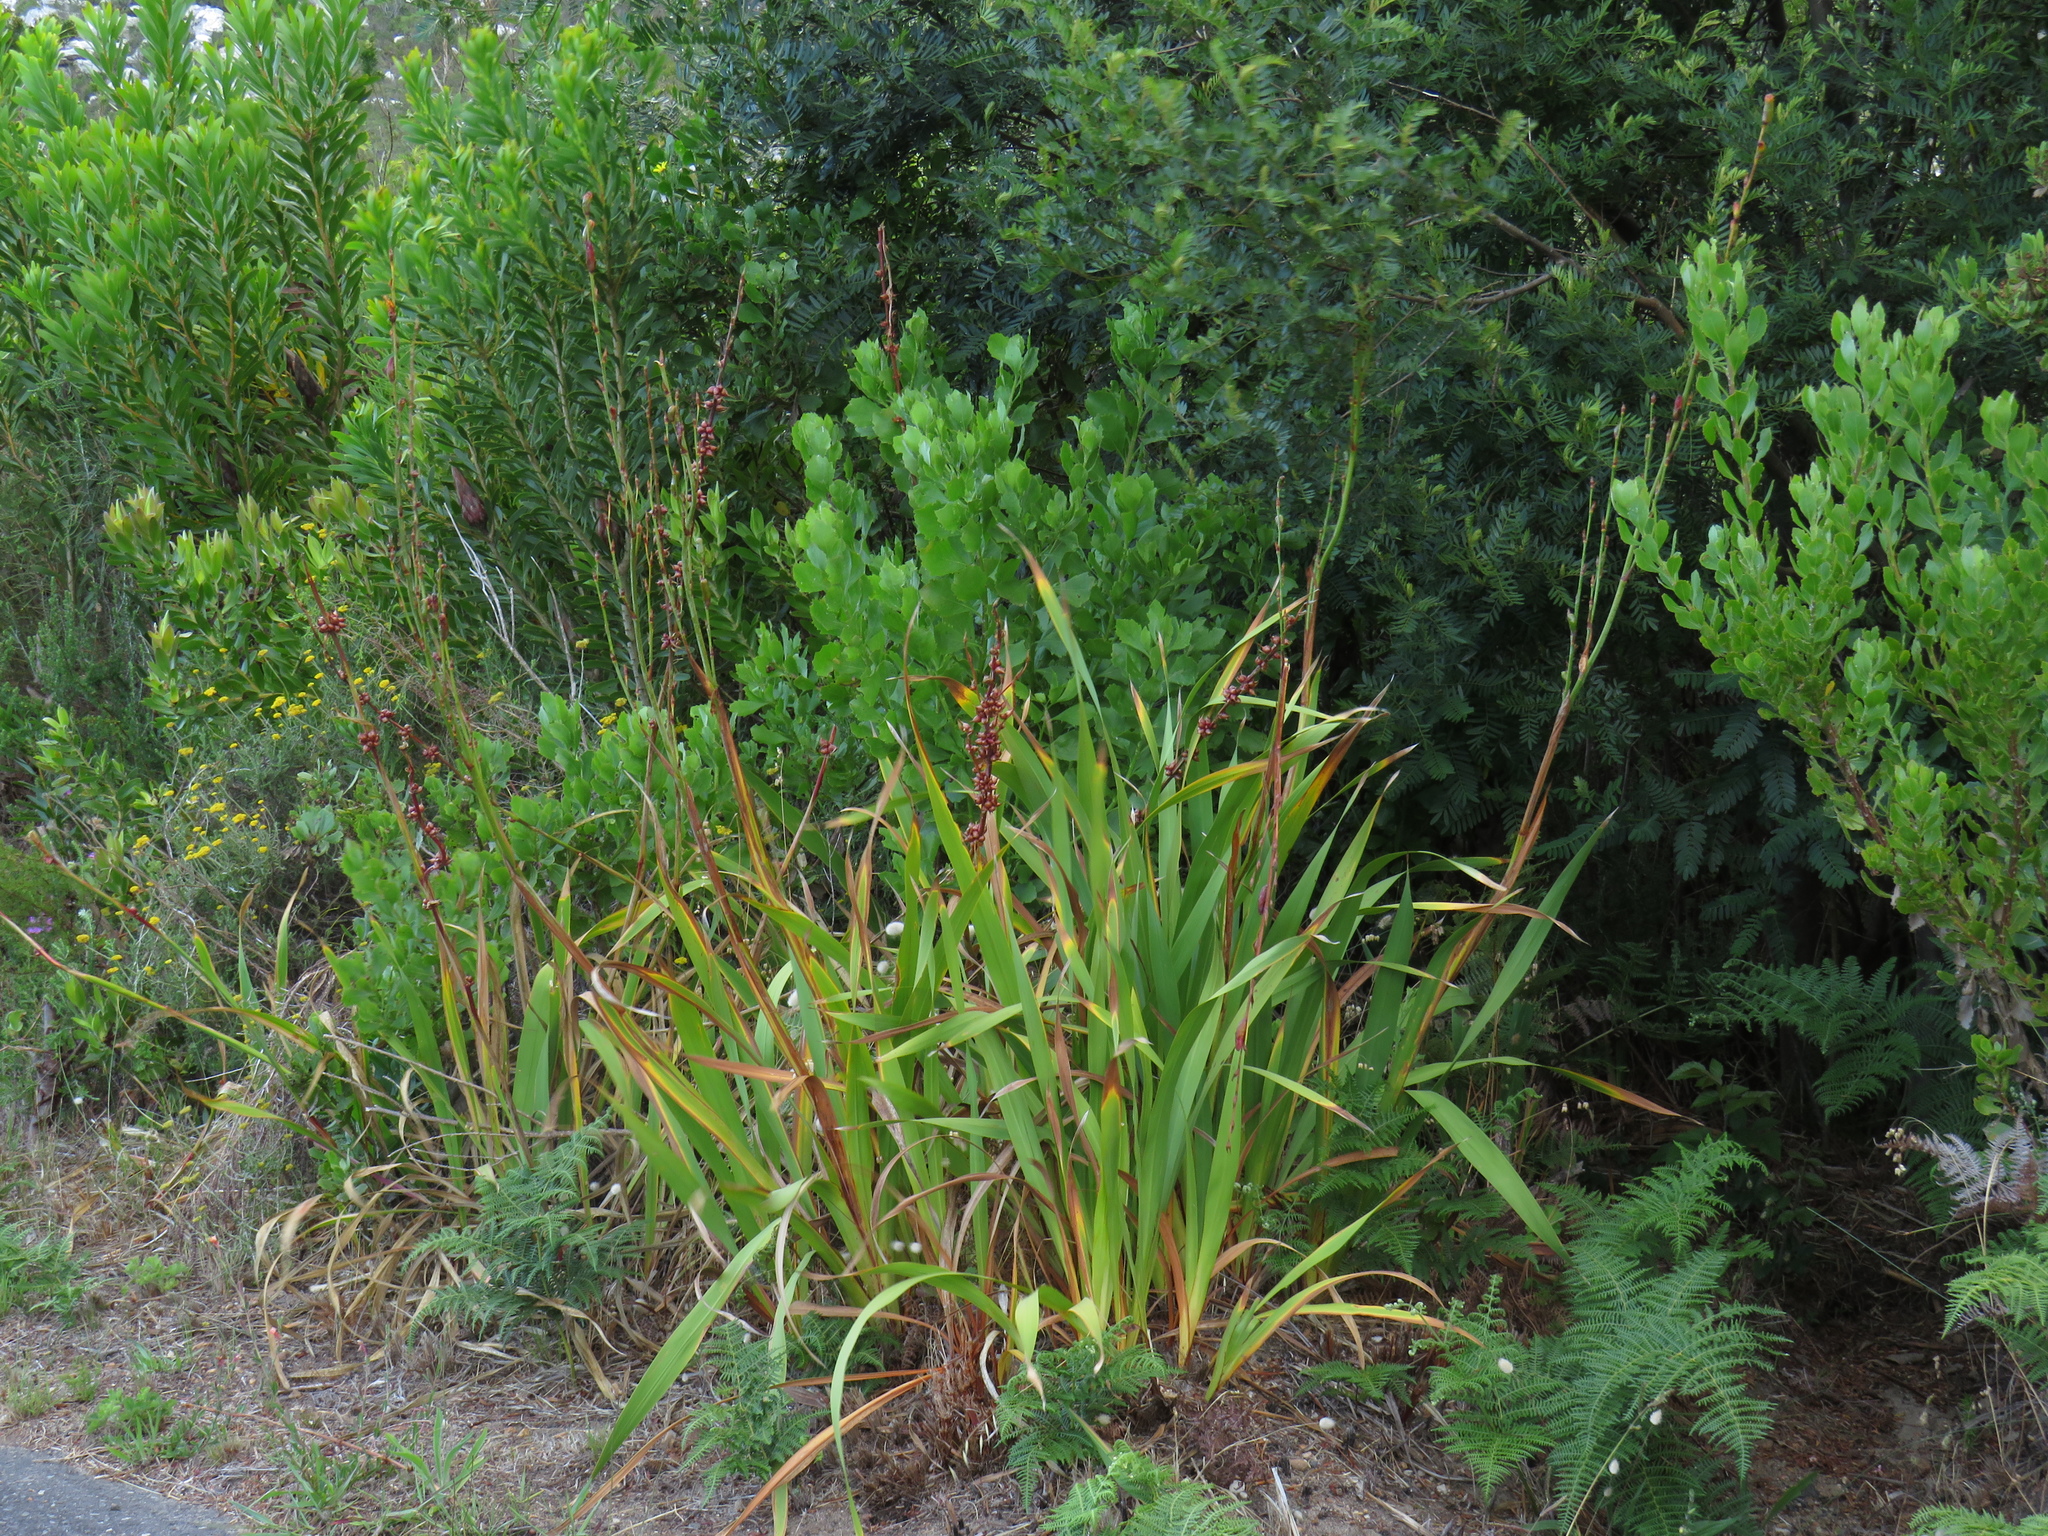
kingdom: Plantae
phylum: Tracheophyta
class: Liliopsida
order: Asparagales
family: Iridaceae
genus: Watsonia
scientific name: Watsonia meriana
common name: Bulbil bugle-lily
